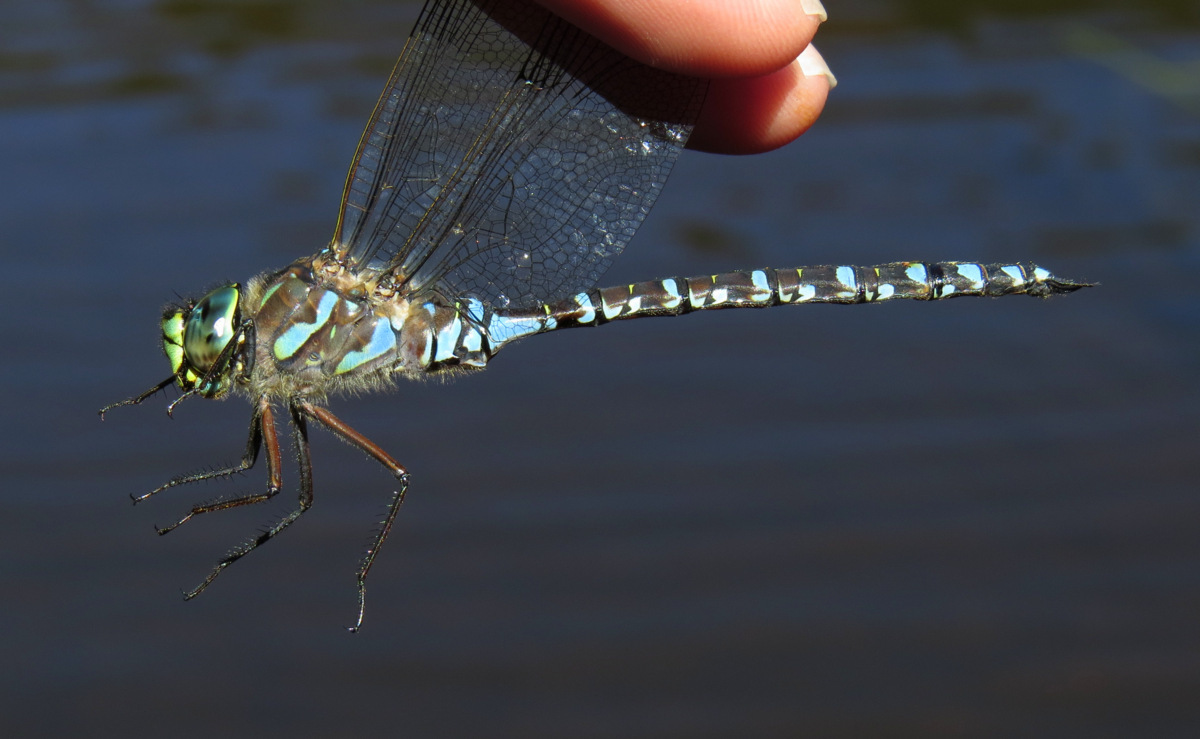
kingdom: Animalia
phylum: Arthropoda
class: Insecta
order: Odonata
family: Aeshnidae
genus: Aeshna
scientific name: Aeshna eremita
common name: Lake darner
